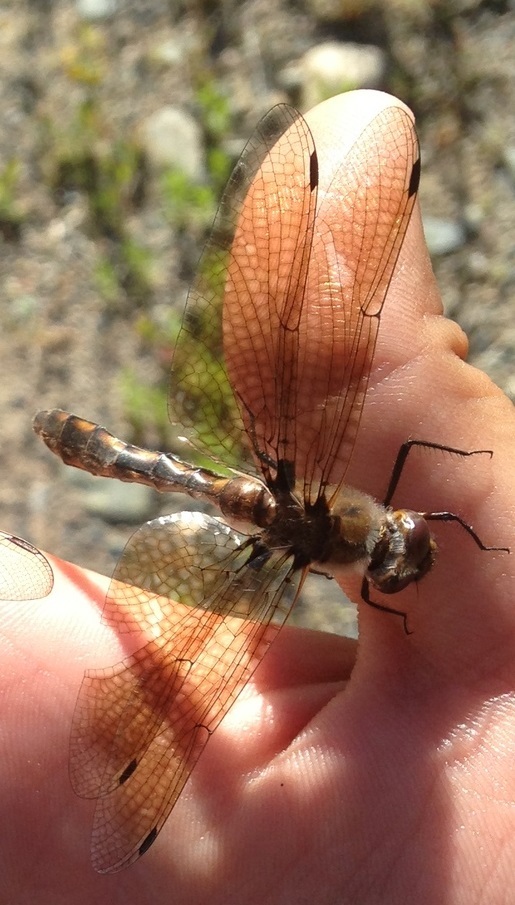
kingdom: Animalia
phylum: Arthropoda
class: Insecta
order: Odonata
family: Corduliidae
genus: Epitheca
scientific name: Epitheca canis
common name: Beaverpond baskettail
